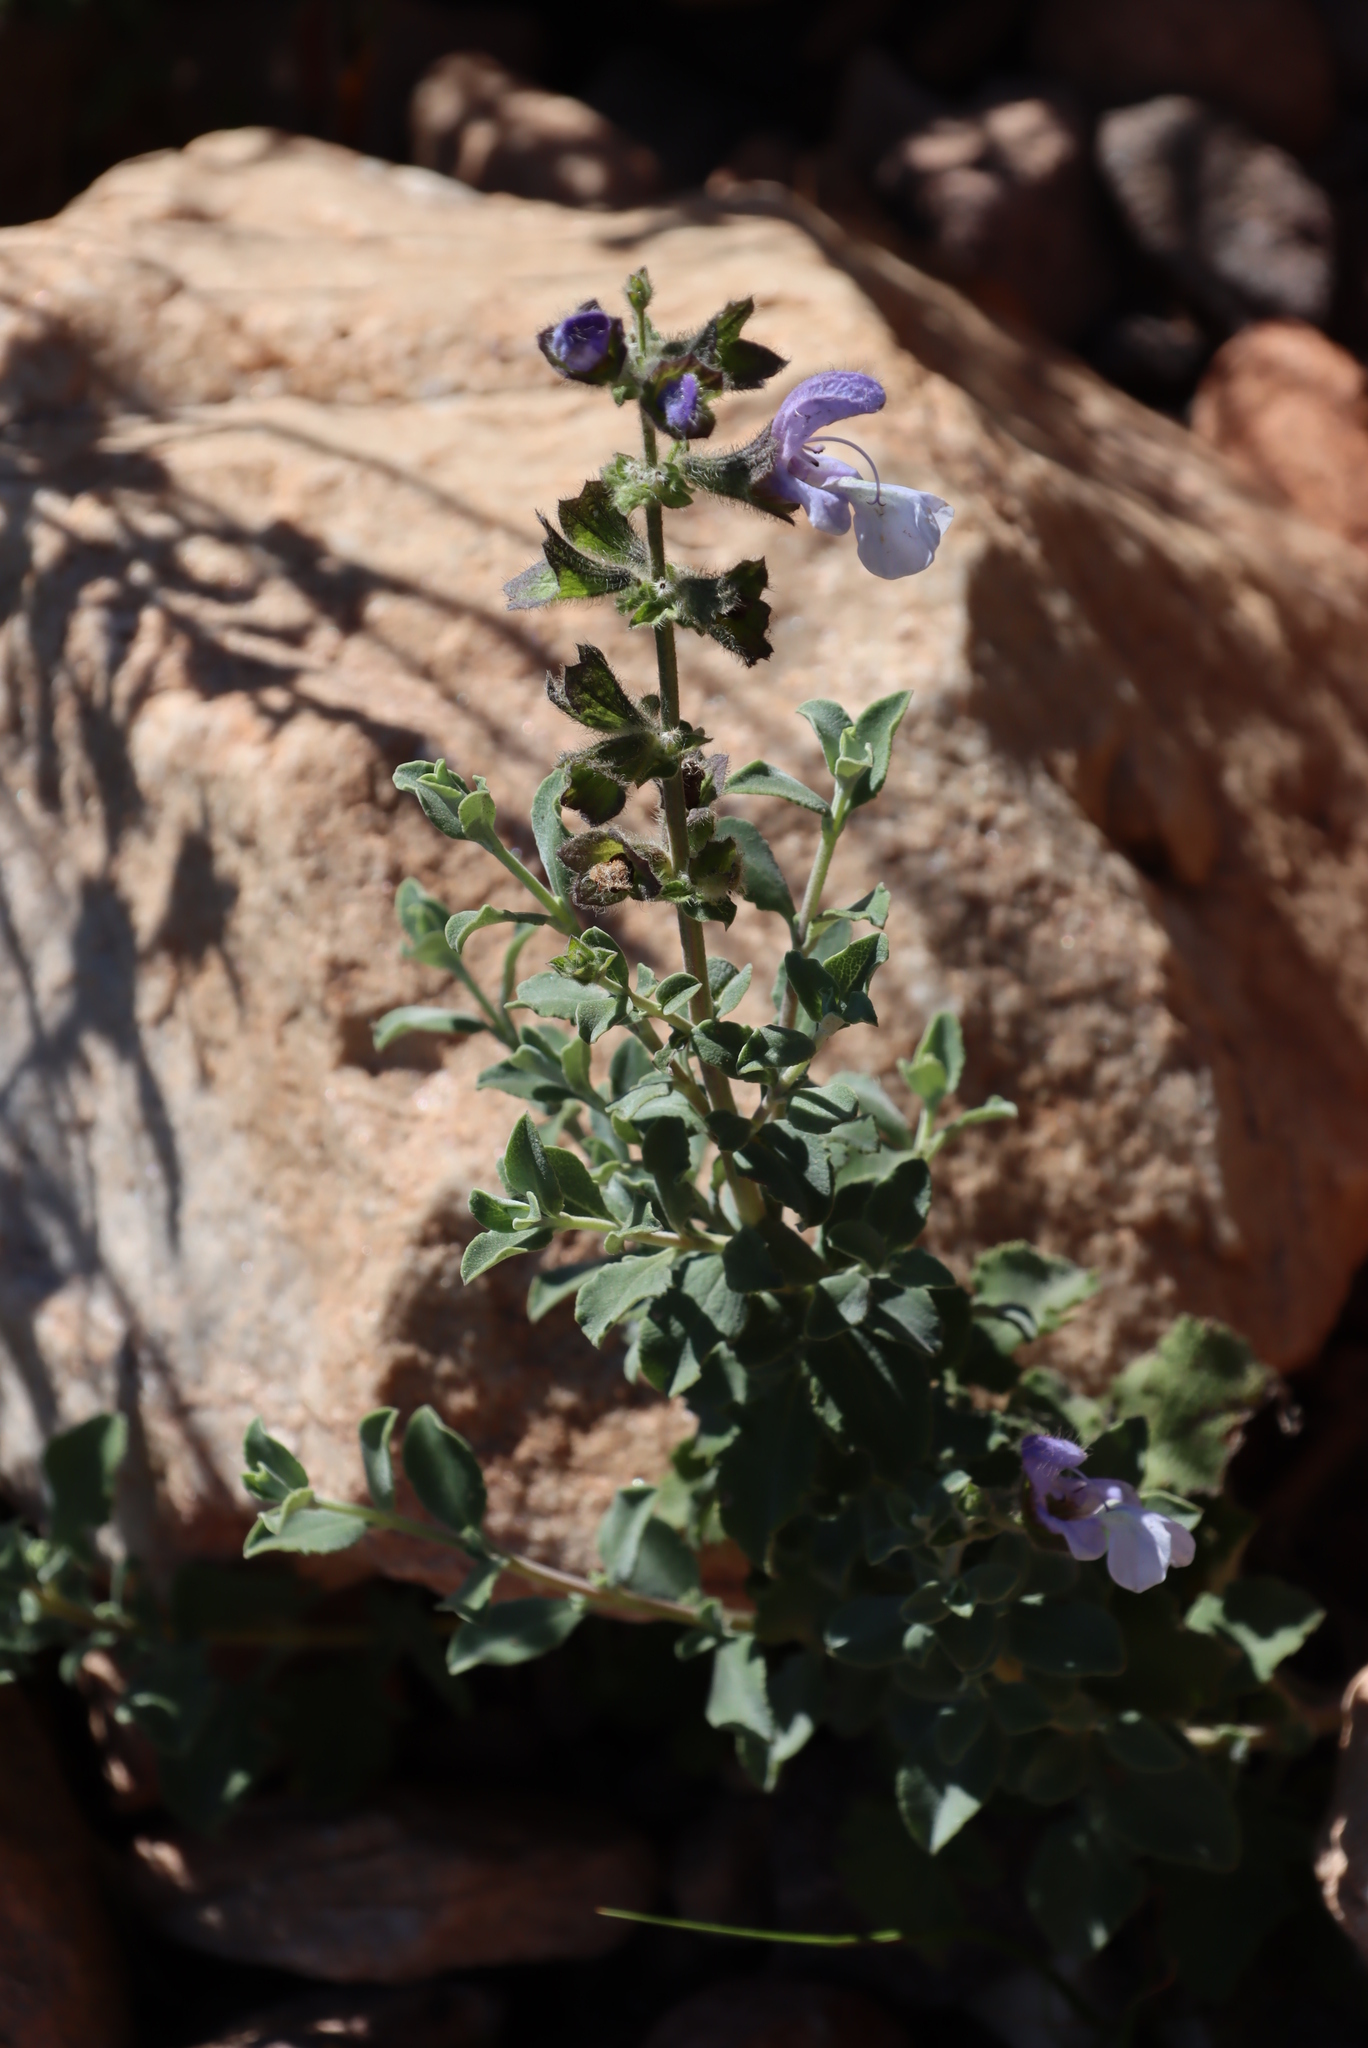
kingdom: Plantae
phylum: Tracheophyta
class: Magnoliopsida
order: Lamiales
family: Lamiaceae
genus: Salvia
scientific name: Salvia africana
